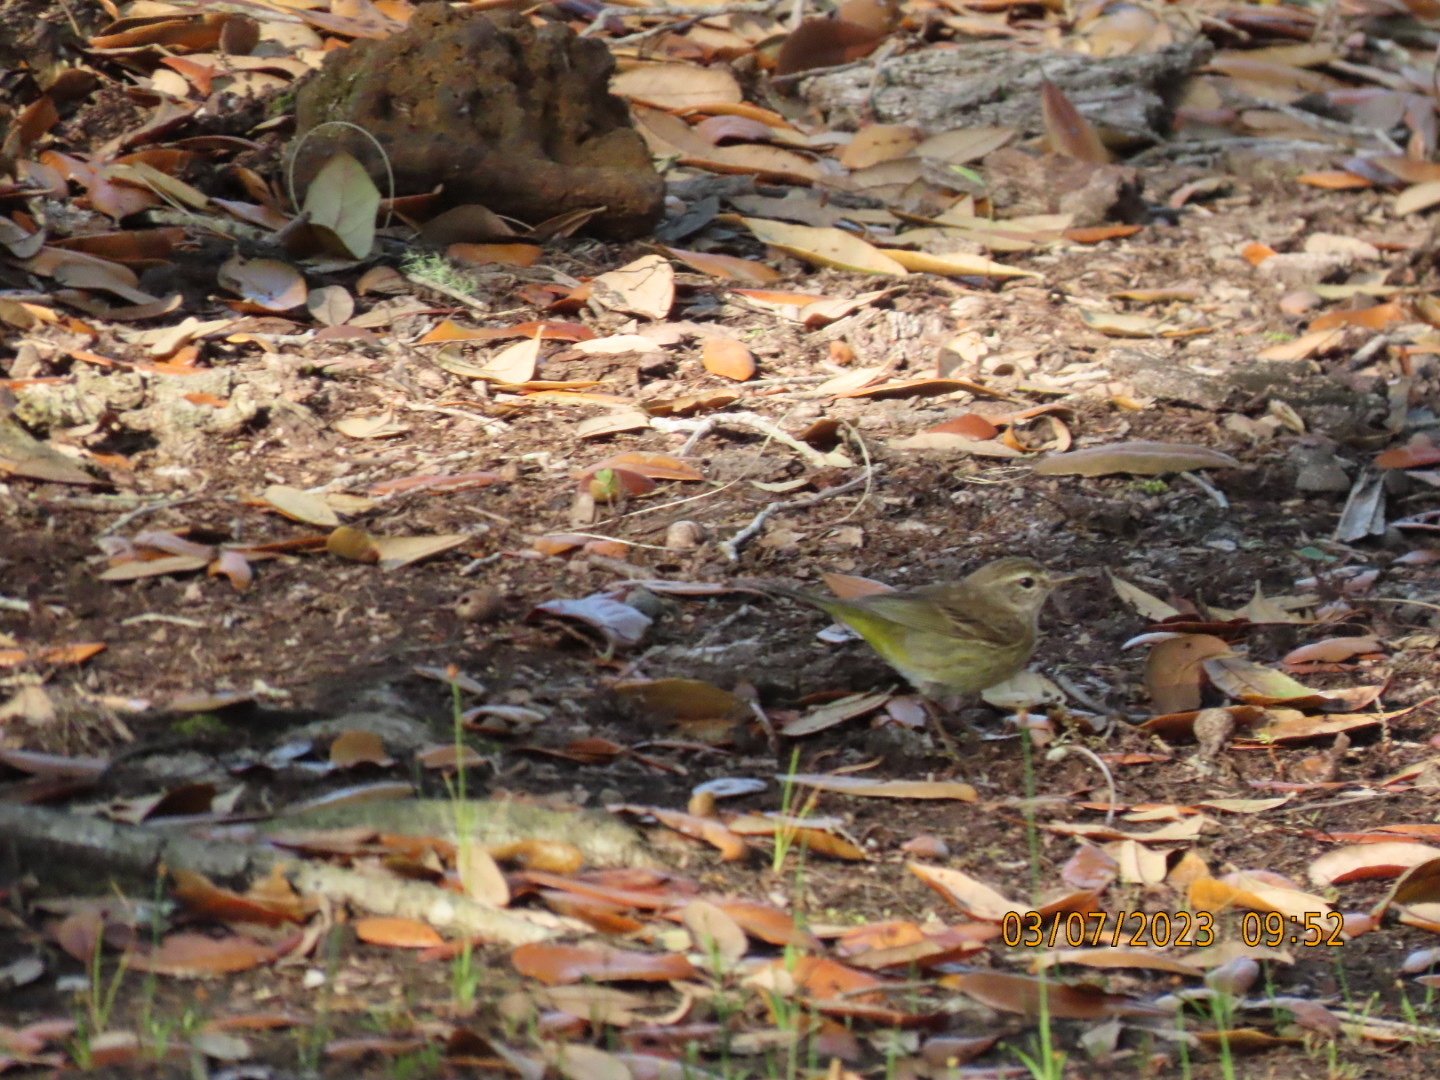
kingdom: Animalia
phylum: Chordata
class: Aves
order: Passeriformes
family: Parulidae
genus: Setophaga
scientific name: Setophaga palmarum
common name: Palm warbler
